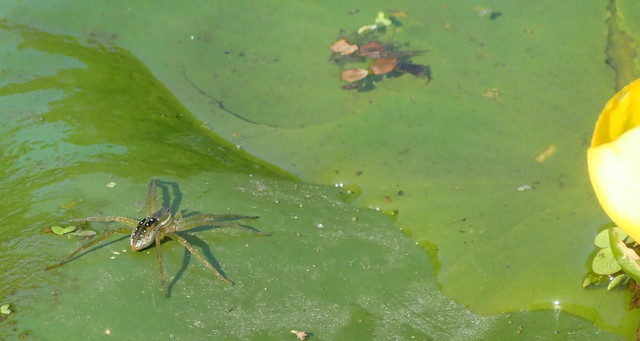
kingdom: Animalia
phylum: Arthropoda
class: Arachnida
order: Araneae
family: Pisauridae
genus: Dolomedes
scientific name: Dolomedes triton
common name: Six-spotted fishing spider
